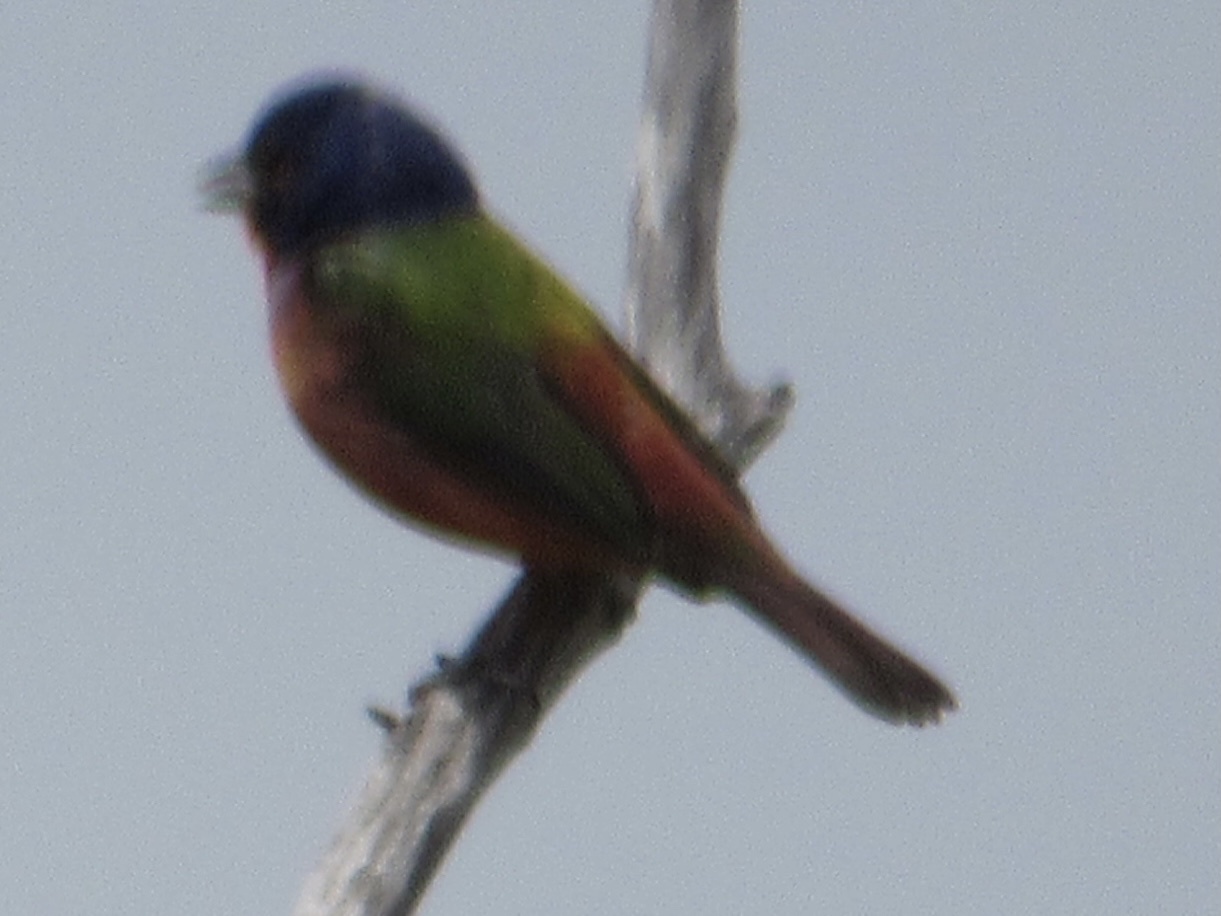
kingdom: Animalia
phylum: Chordata
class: Aves
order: Passeriformes
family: Cardinalidae
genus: Passerina
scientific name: Passerina ciris
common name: Painted bunting
